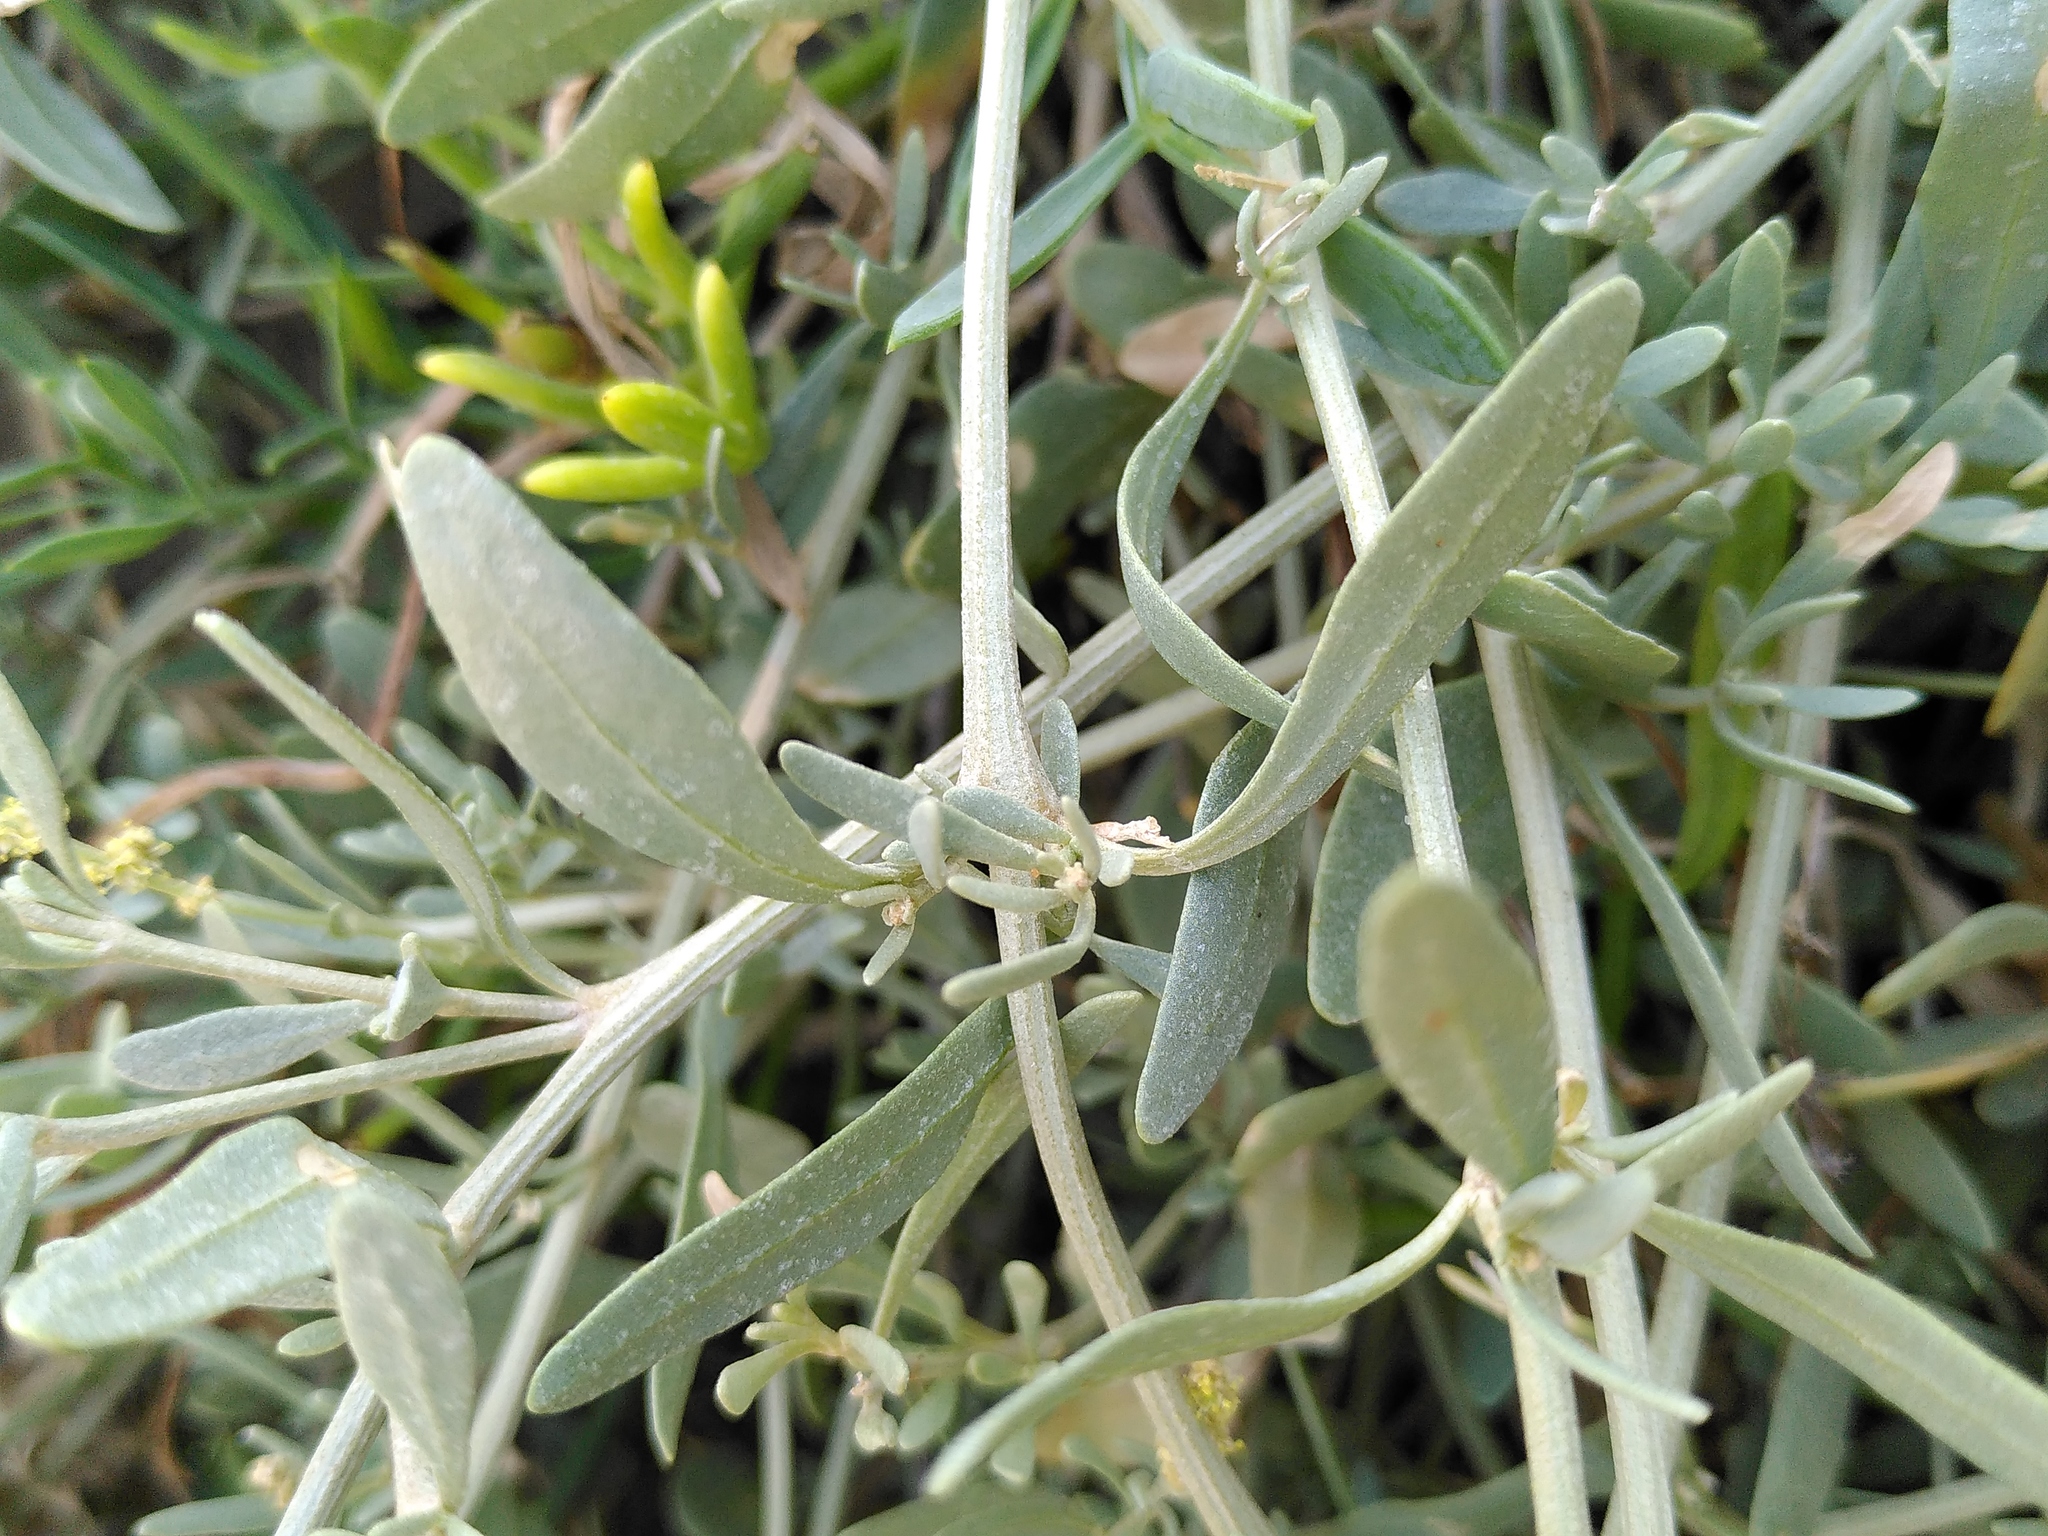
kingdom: Plantae
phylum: Tracheophyta
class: Magnoliopsida
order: Caryophyllales
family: Amaranthaceae
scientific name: Amaranthaceae
